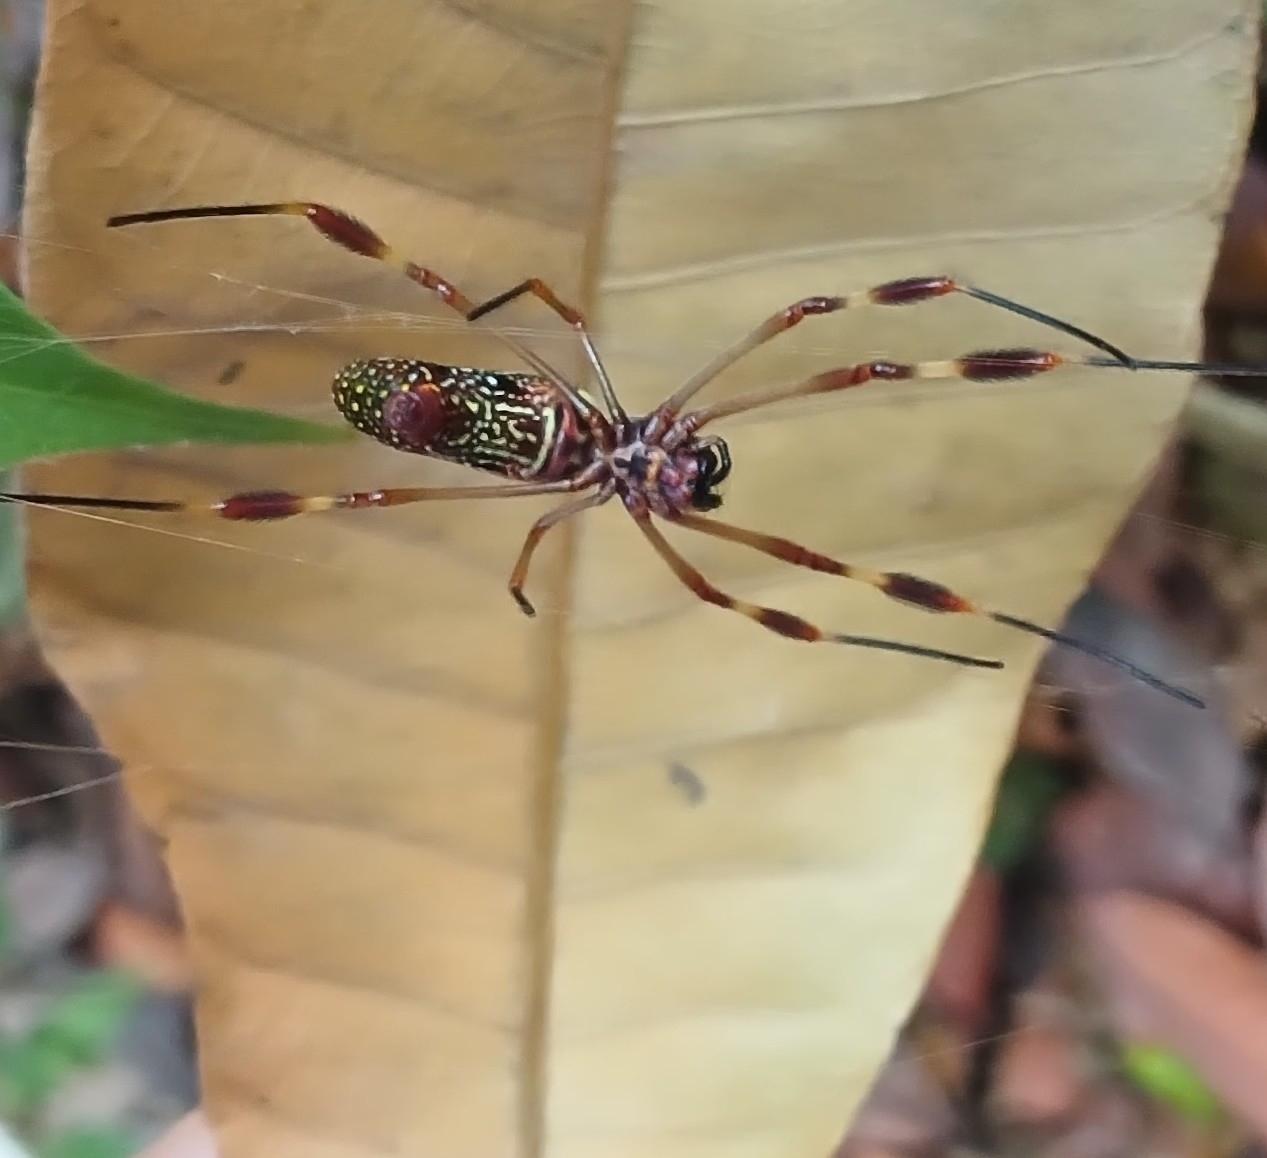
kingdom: Animalia
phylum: Arthropoda
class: Arachnida
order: Araneae
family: Araneidae
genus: Trichonephila
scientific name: Trichonephila clavipes
